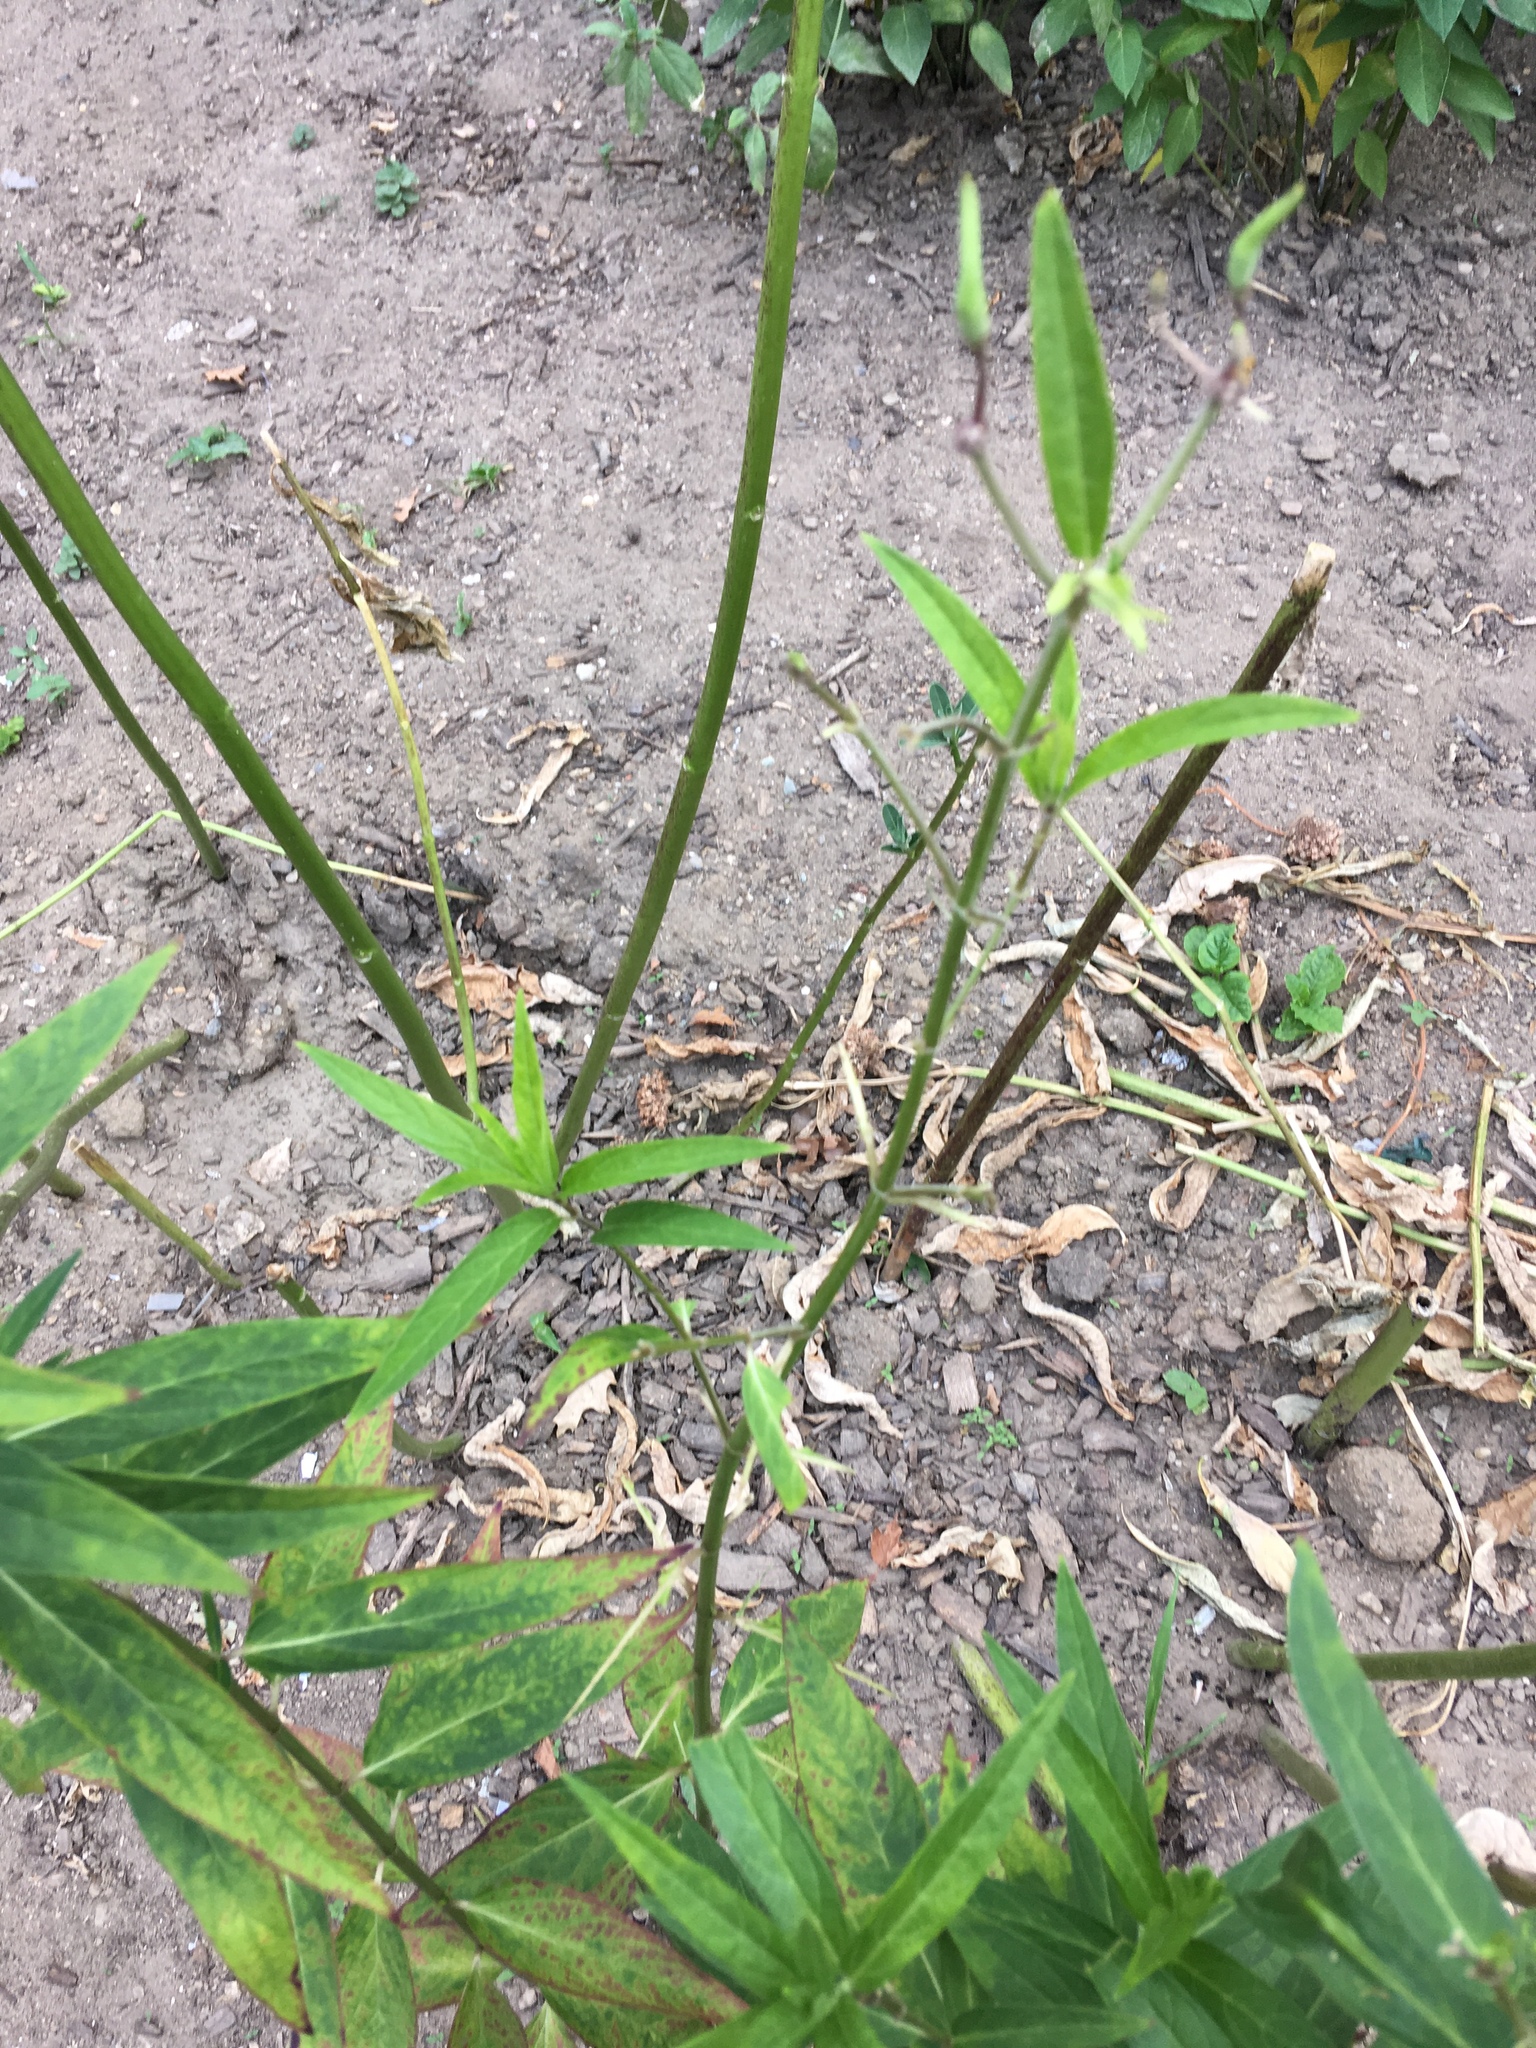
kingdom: Plantae
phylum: Tracheophyta
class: Magnoliopsida
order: Gentianales
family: Apocynaceae
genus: Asclepias
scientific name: Asclepias incarnata
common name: Swamp milkweed
